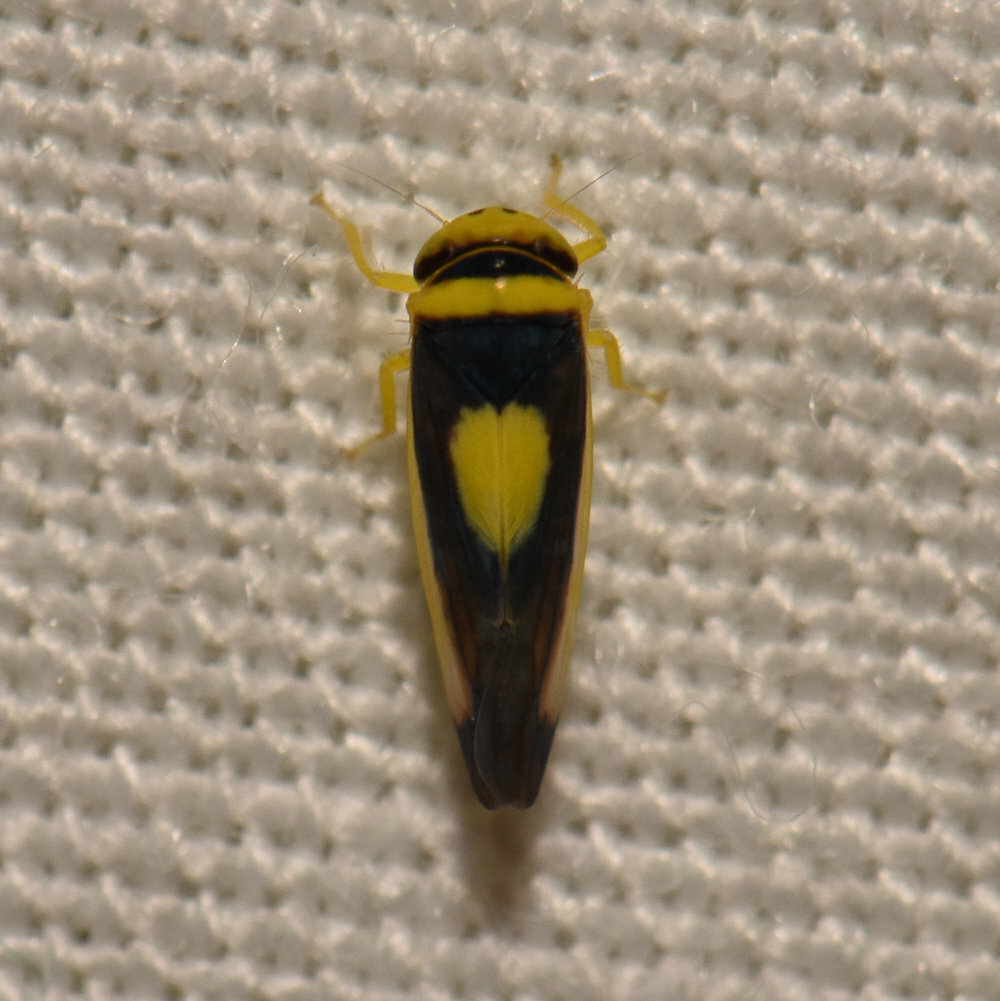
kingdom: Animalia
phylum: Arthropoda
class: Insecta
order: Hemiptera
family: Cicadellidae
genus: Colladonus
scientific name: Colladonus clitellarius
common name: The saddleback leafhopper
